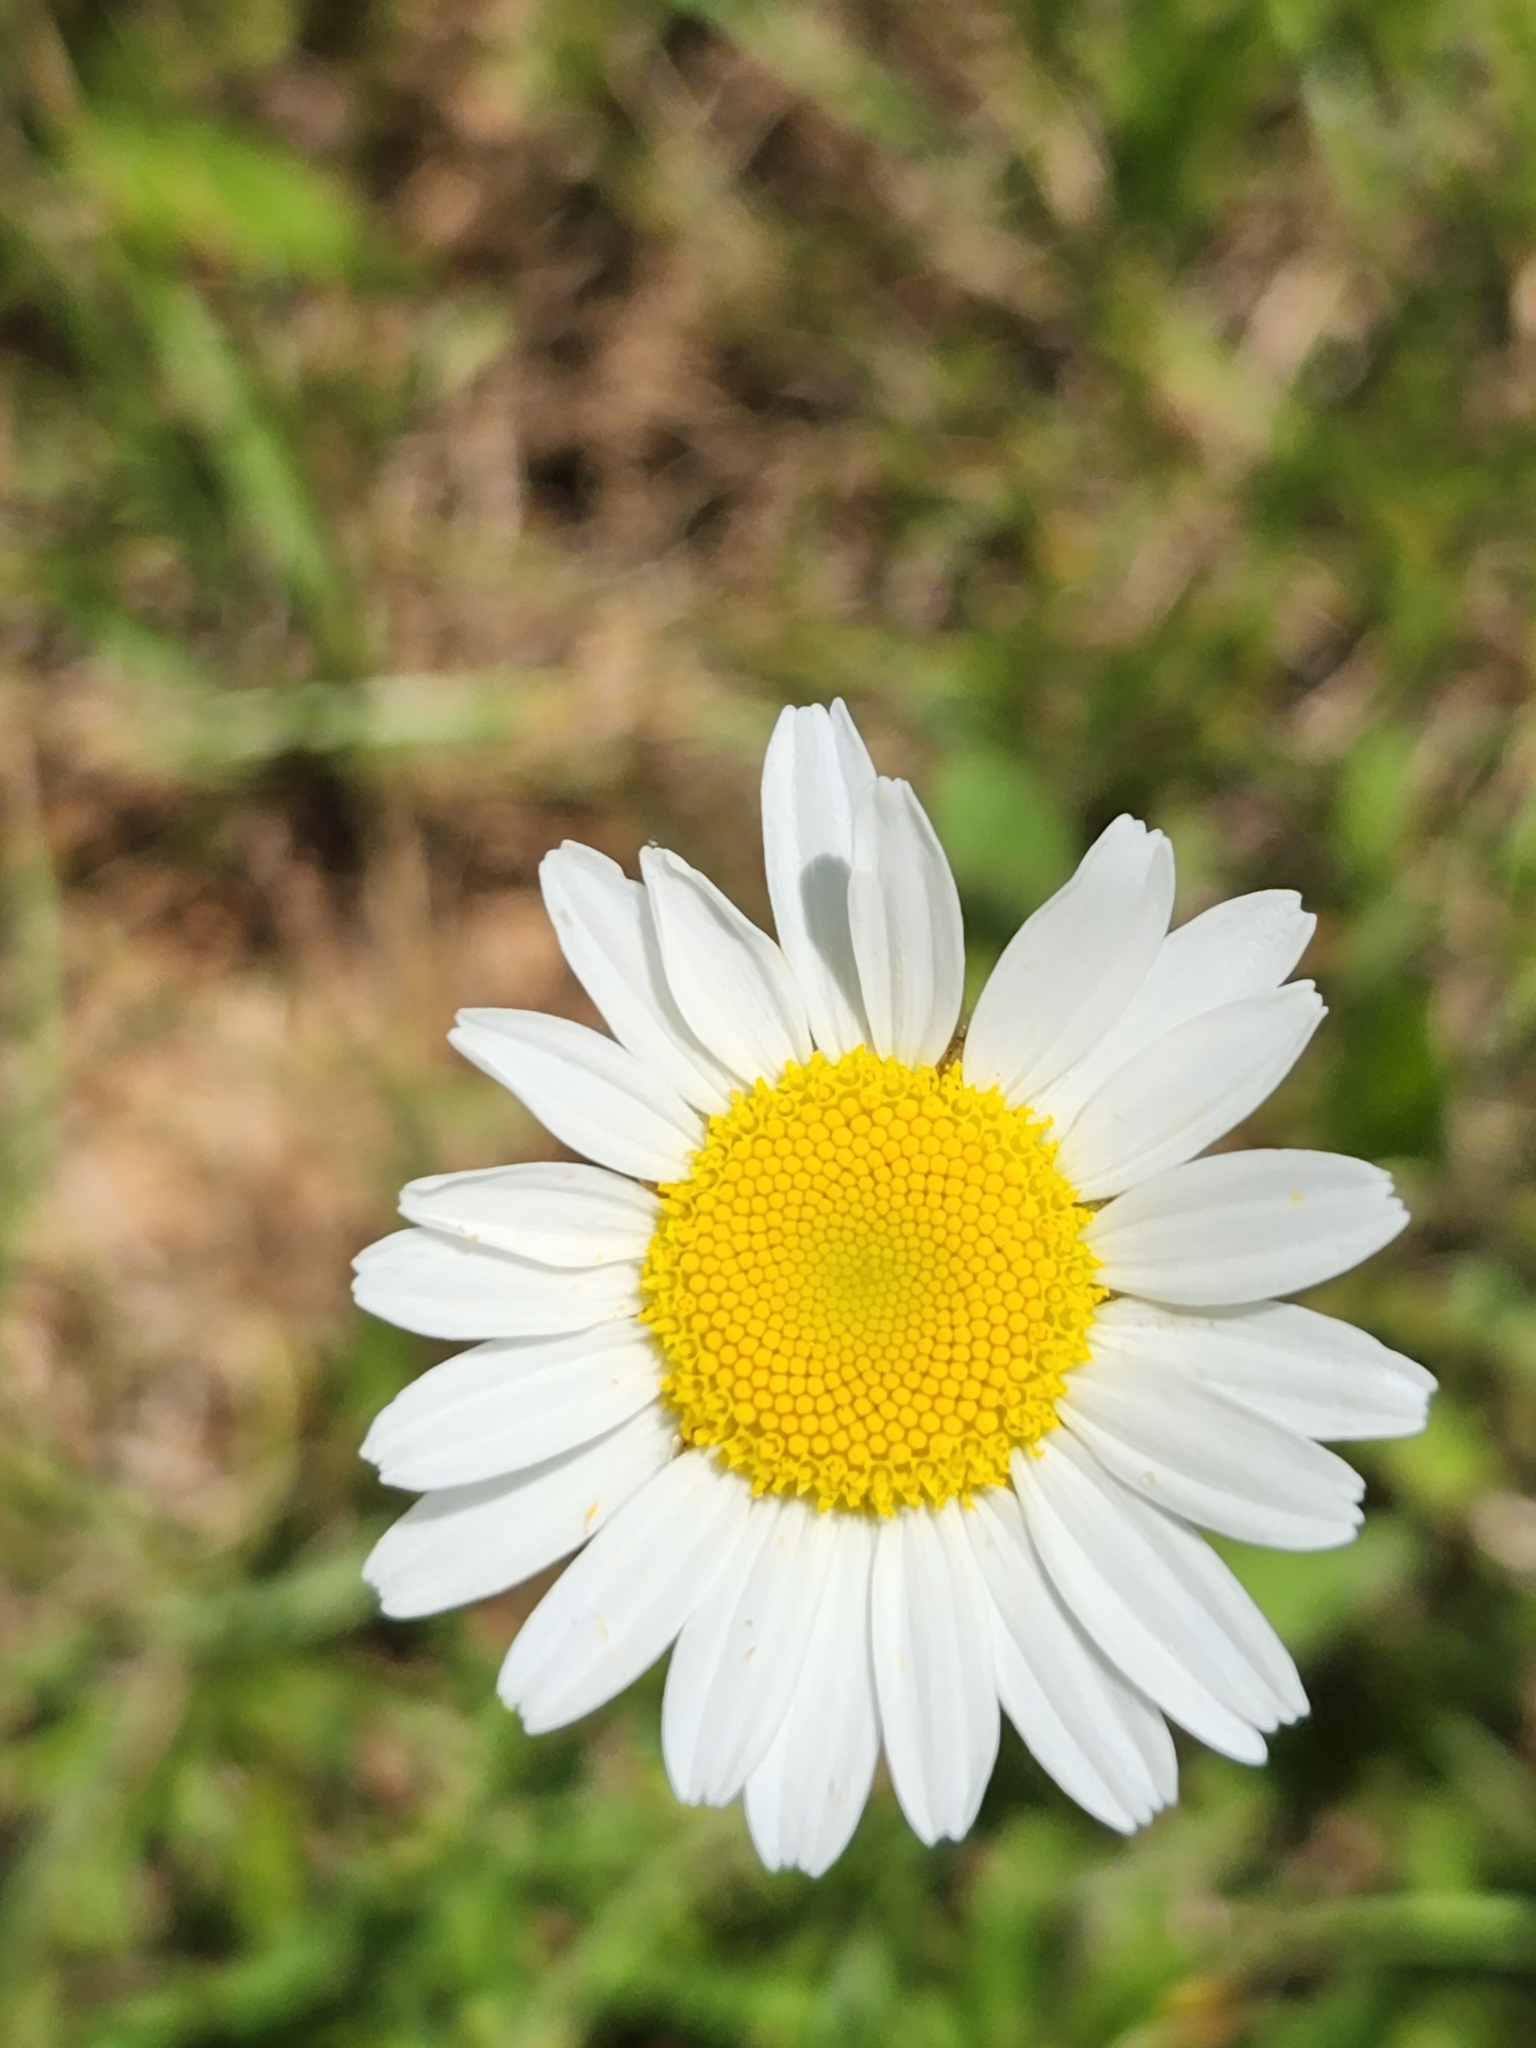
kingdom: Plantae
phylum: Tracheophyta
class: Magnoliopsida
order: Asterales
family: Asteraceae
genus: Leucanthemum
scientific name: Leucanthemum vulgare
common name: Oxeye daisy
